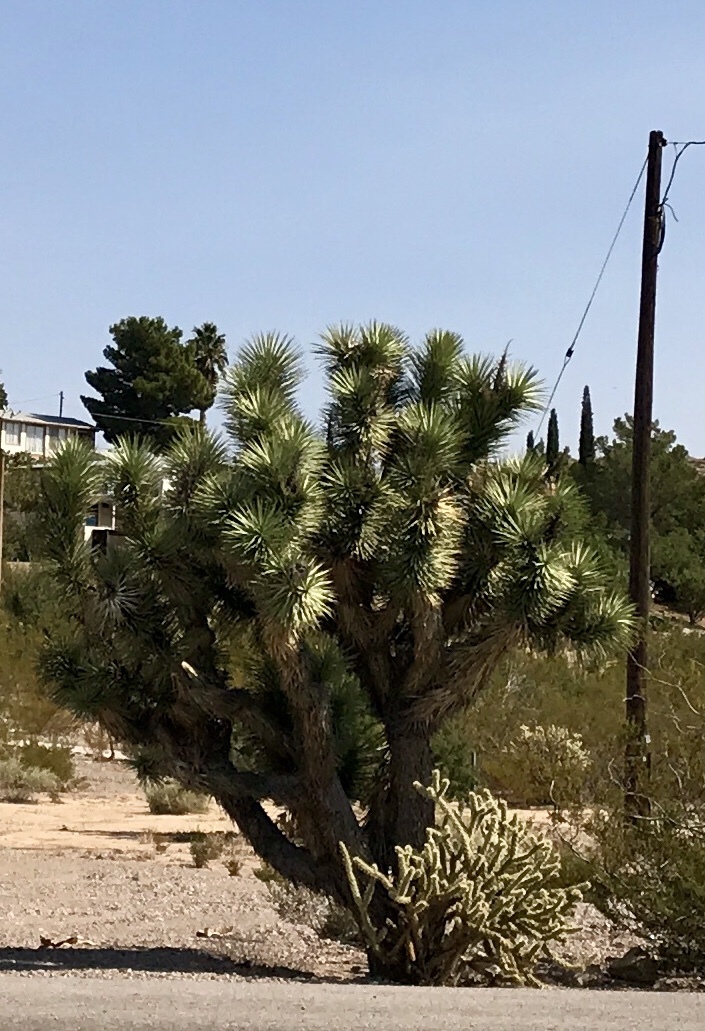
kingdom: Plantae
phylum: Tracheophyta
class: Liliopsida
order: Asparagales
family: Asparagaceae
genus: Yucca
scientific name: Yucca brevifolia
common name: Joshua tree
